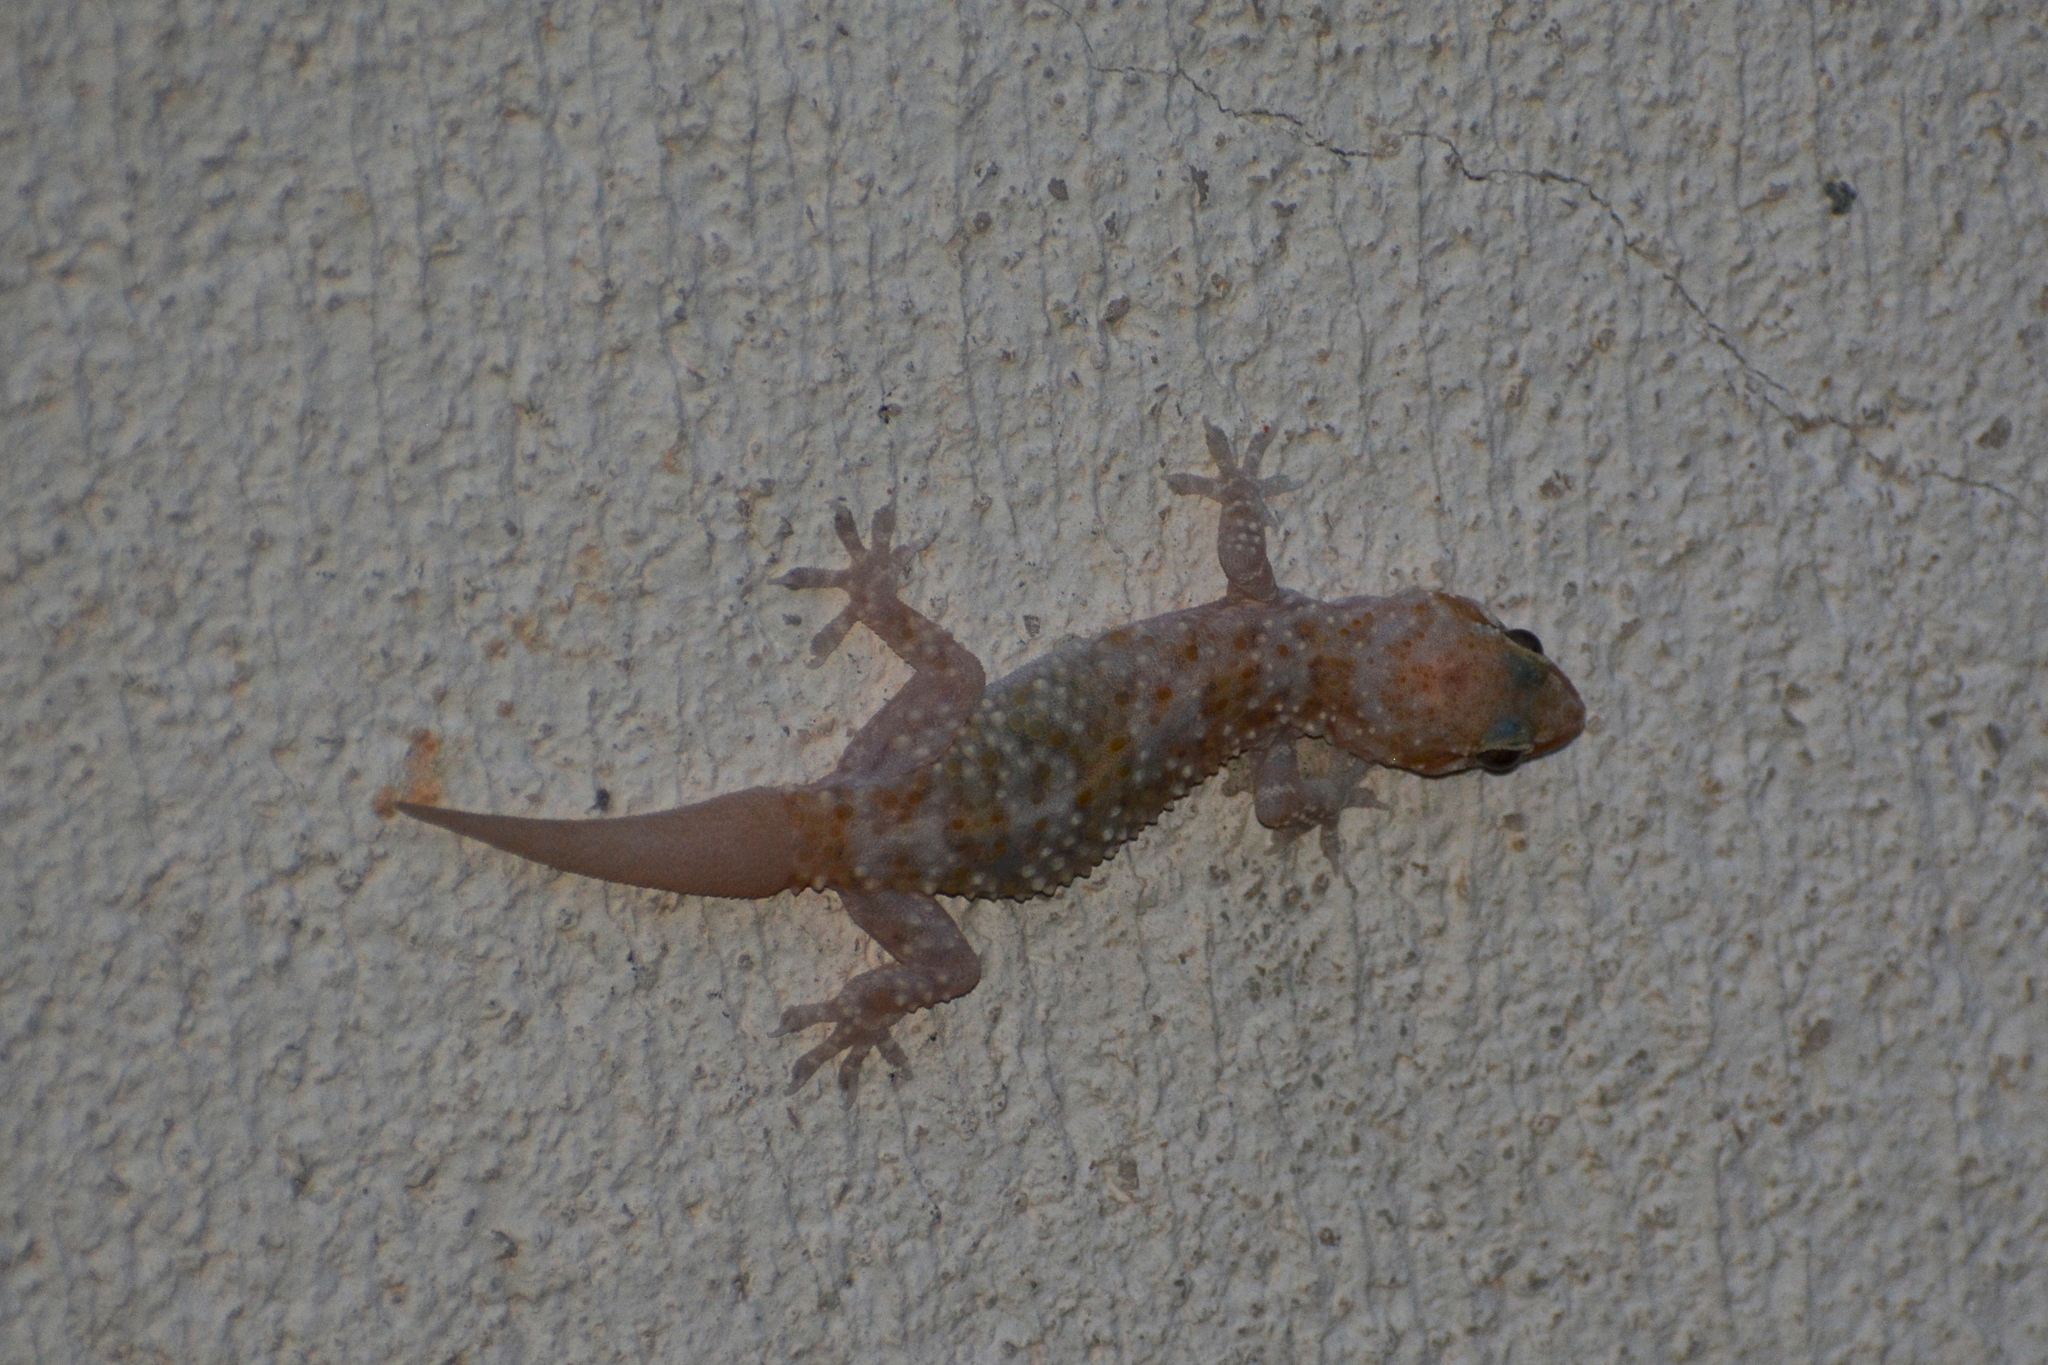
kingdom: Animalia
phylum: Chordata
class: Squamata
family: Gekkonidae
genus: Hemidactylus
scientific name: Hemidactylus turcicus
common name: Turkish gecko
